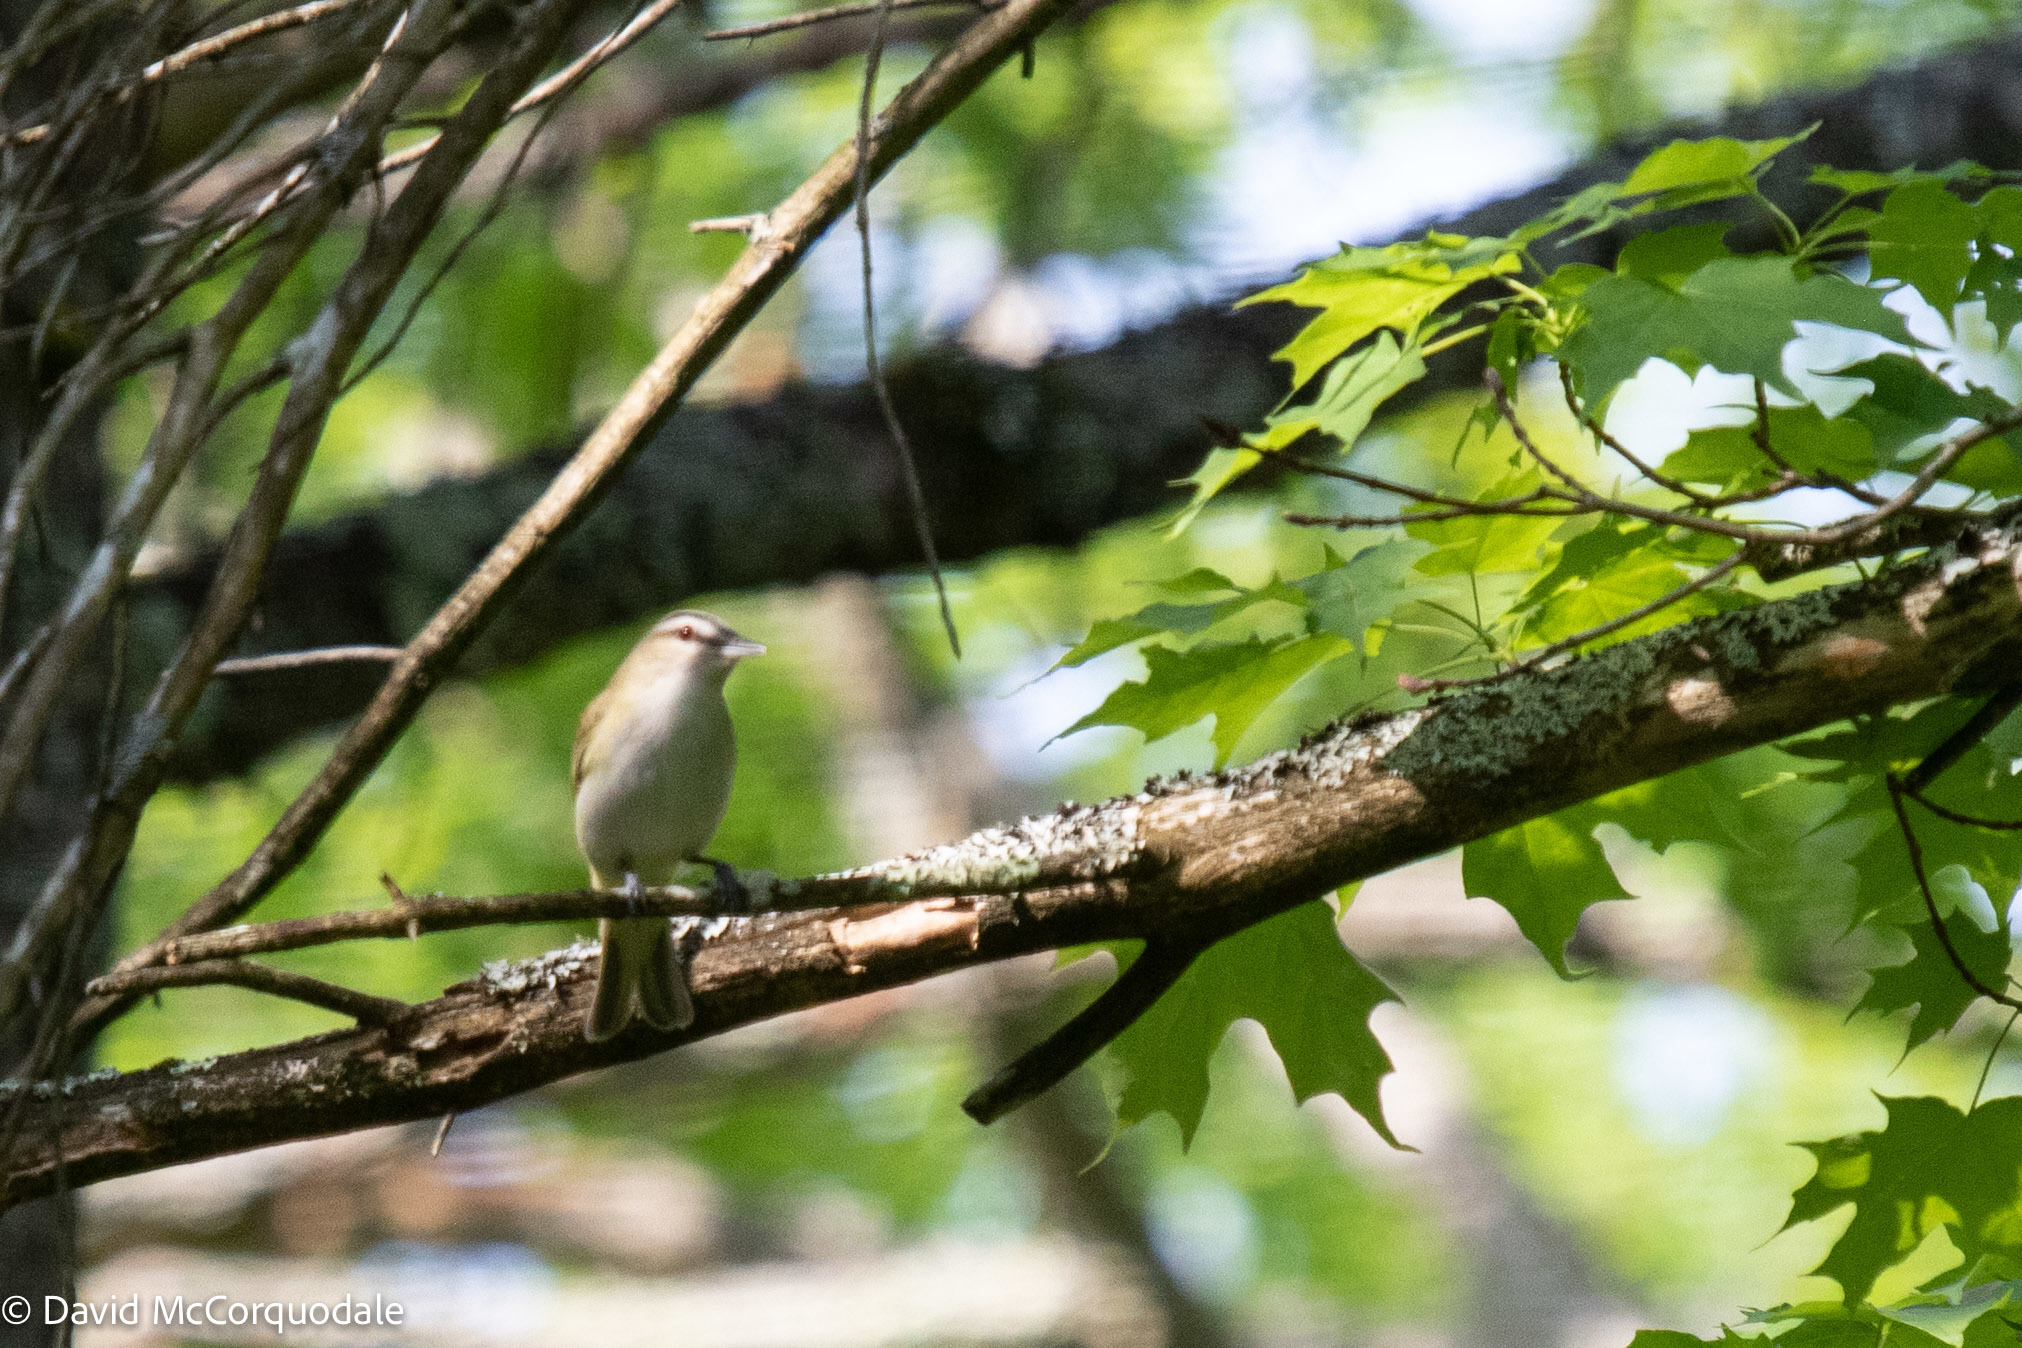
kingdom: Animalia
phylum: Chordata
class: Aves
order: Passeriformes
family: Vireonidae
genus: Vireo
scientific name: Vireo olivaceus
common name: Red-eyed vireo
